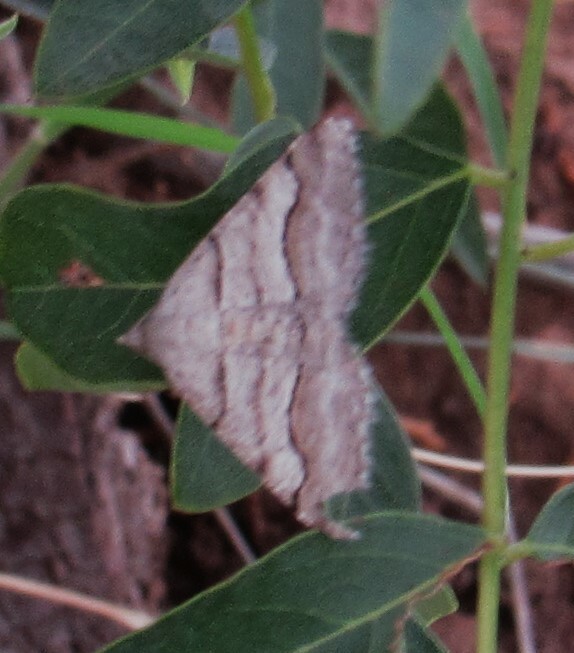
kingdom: Animalia
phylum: Arthropoda
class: Insecta
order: Lepidoptera
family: Geometridae
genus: Digrammia
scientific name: Digrammia continuata
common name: Curve-lined angle
